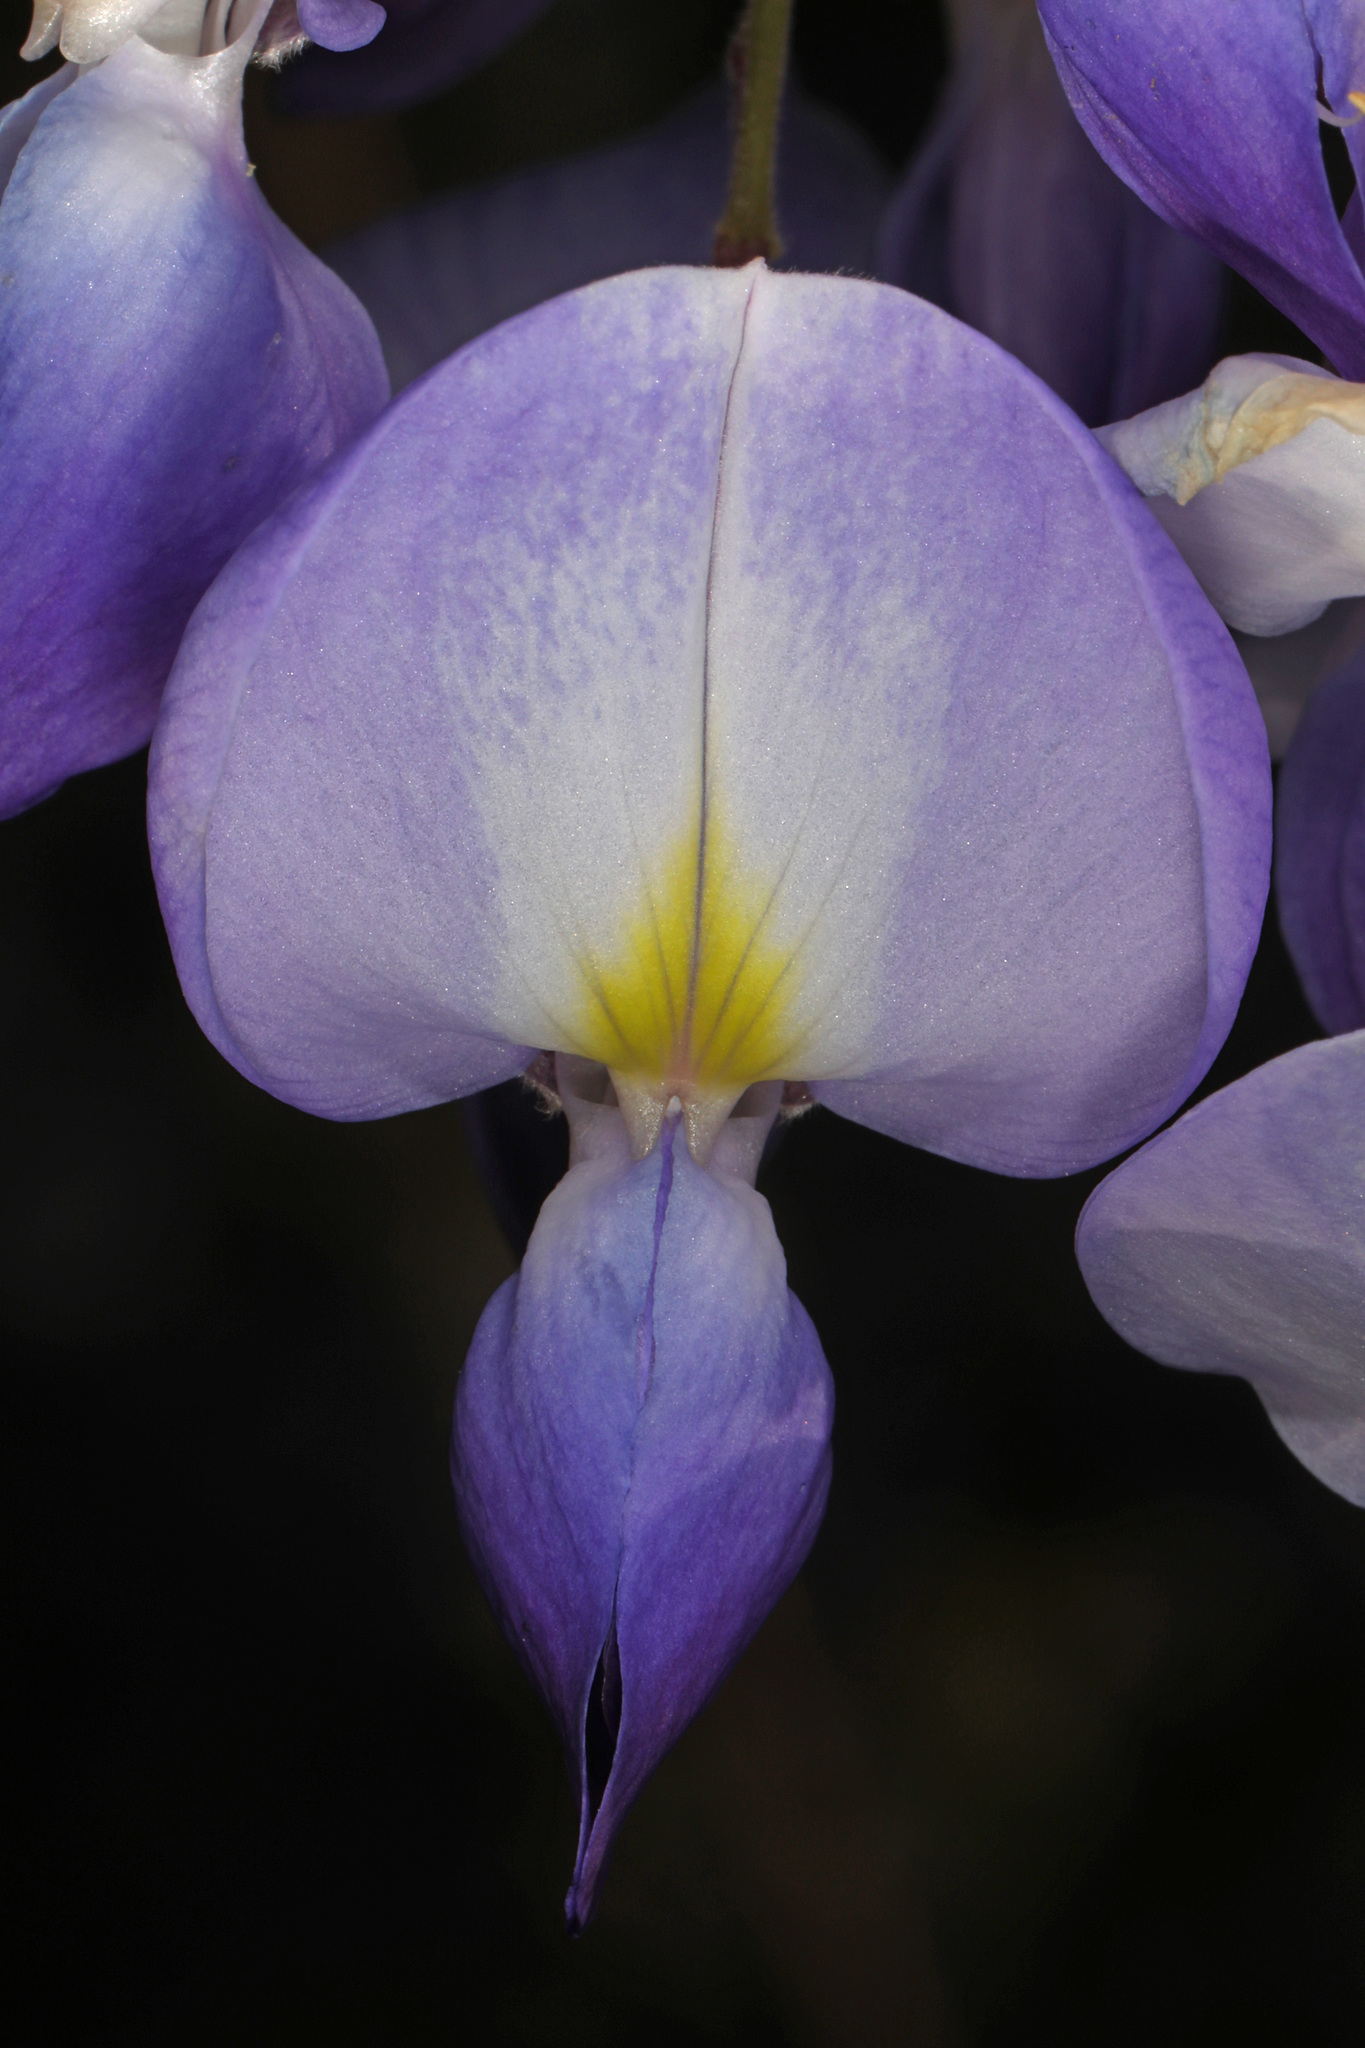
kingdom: Plantae
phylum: Tracheophyta
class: Magnoliopsida
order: Fabales
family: Fabaceae
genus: Wisteria
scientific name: Wisteria sinensis
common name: Chinese wisteria
